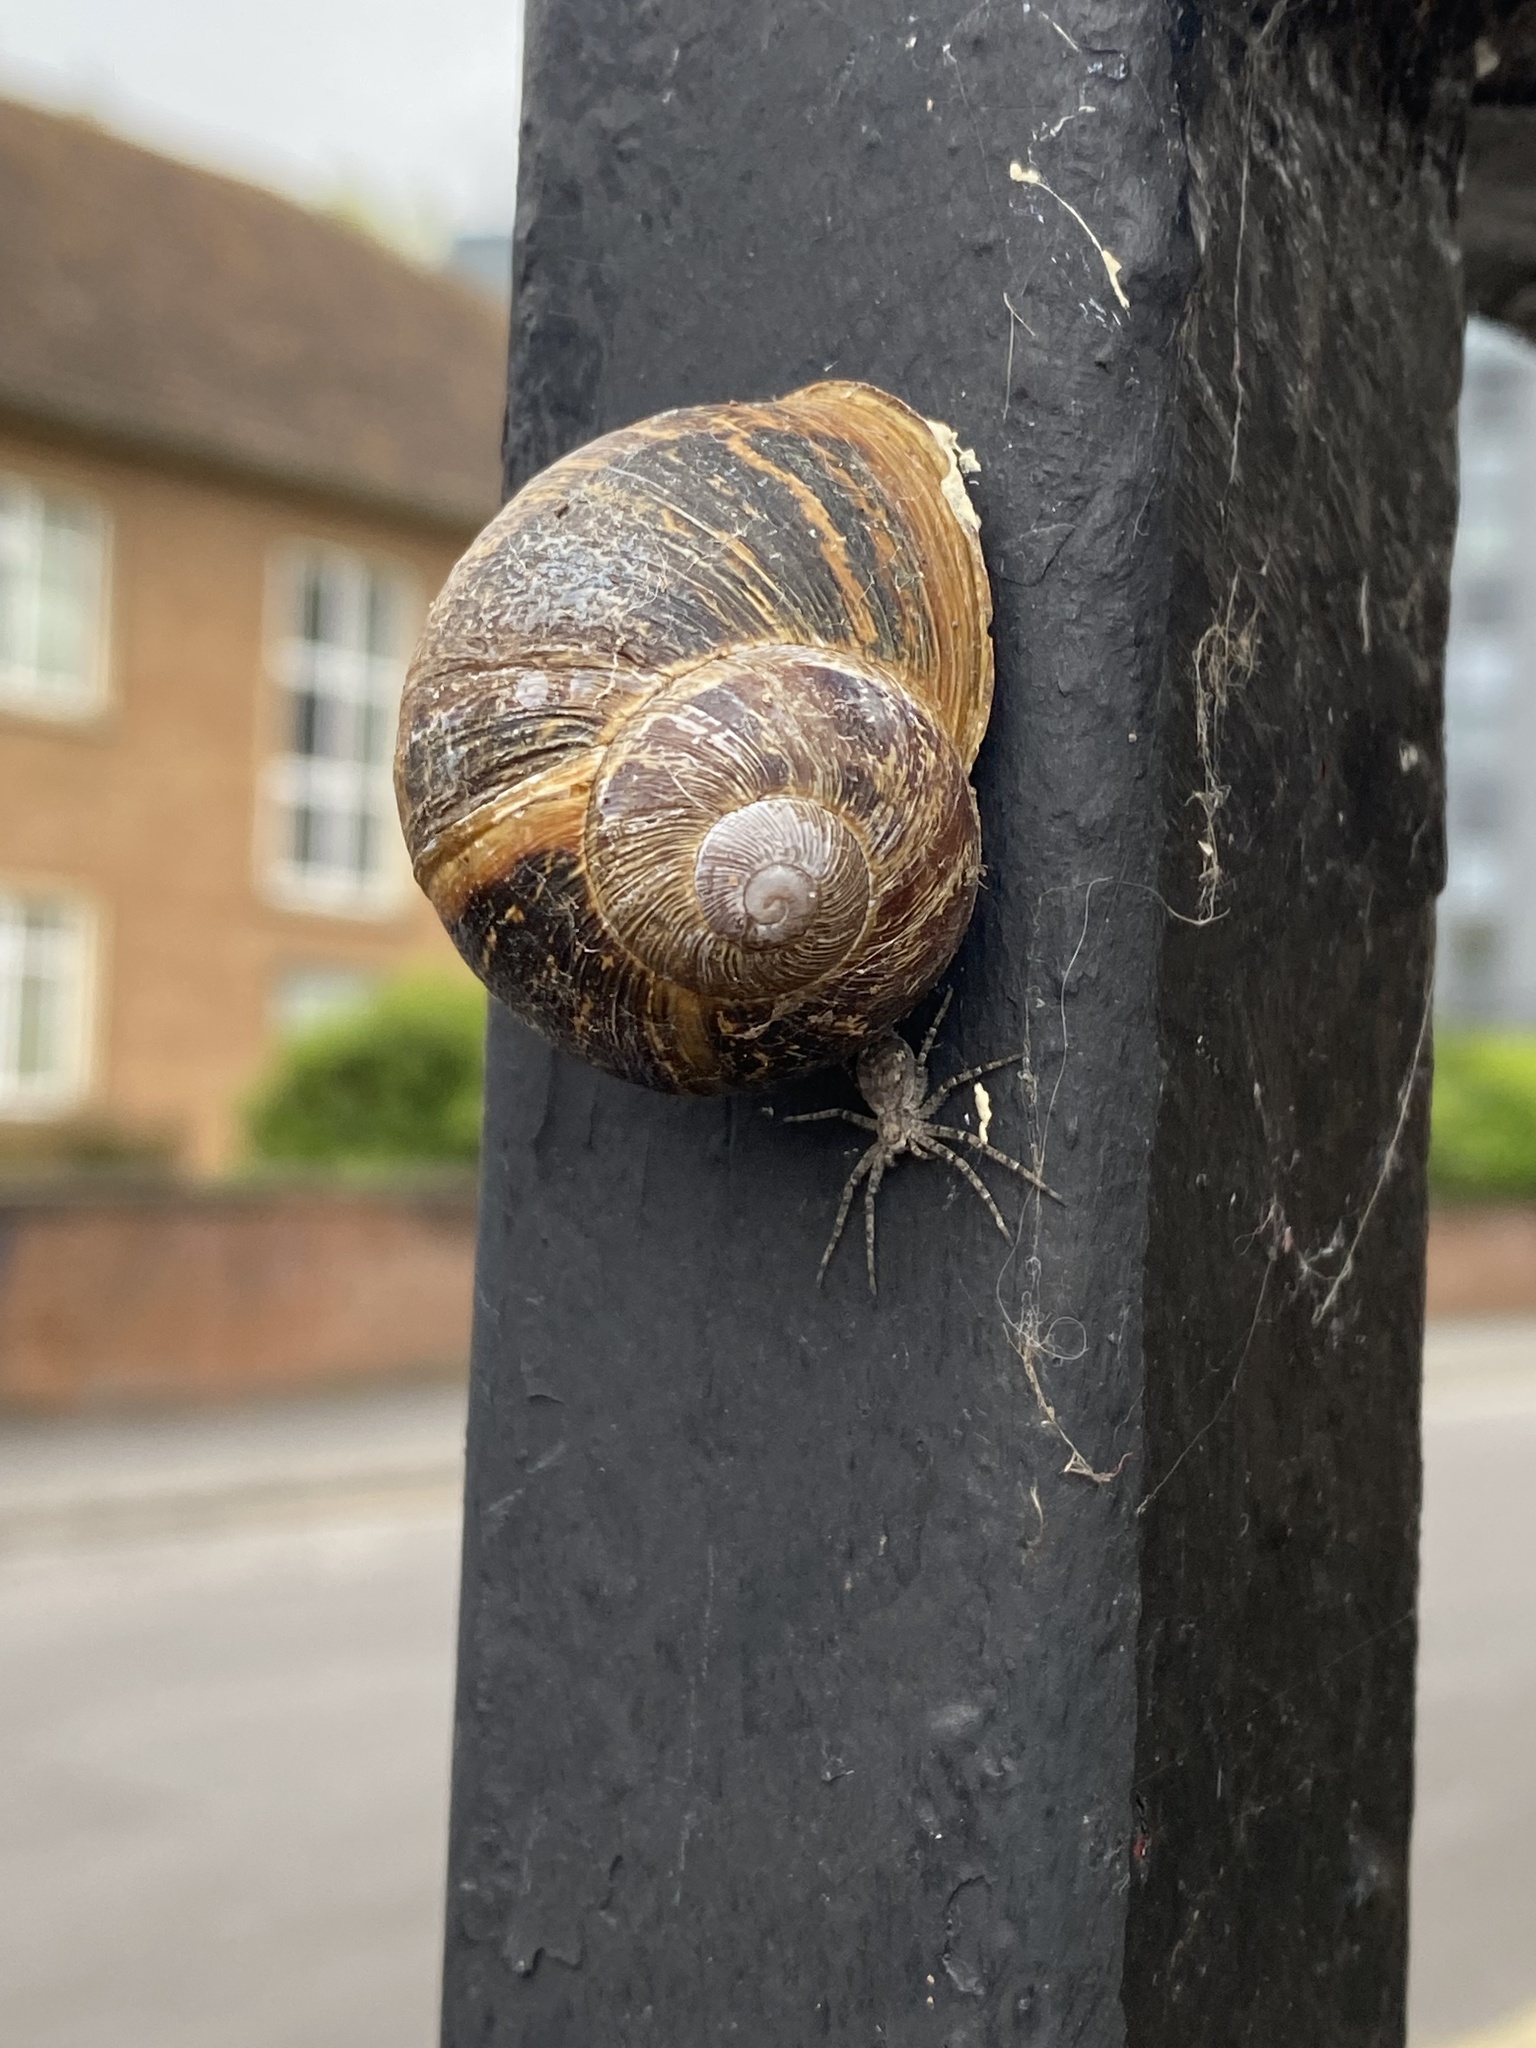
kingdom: Animalia
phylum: Mollusca
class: Gastropoda
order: Stylommatophora
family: Helicidae
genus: Cornu
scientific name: Cornu aspersum
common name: Brown garden snail
